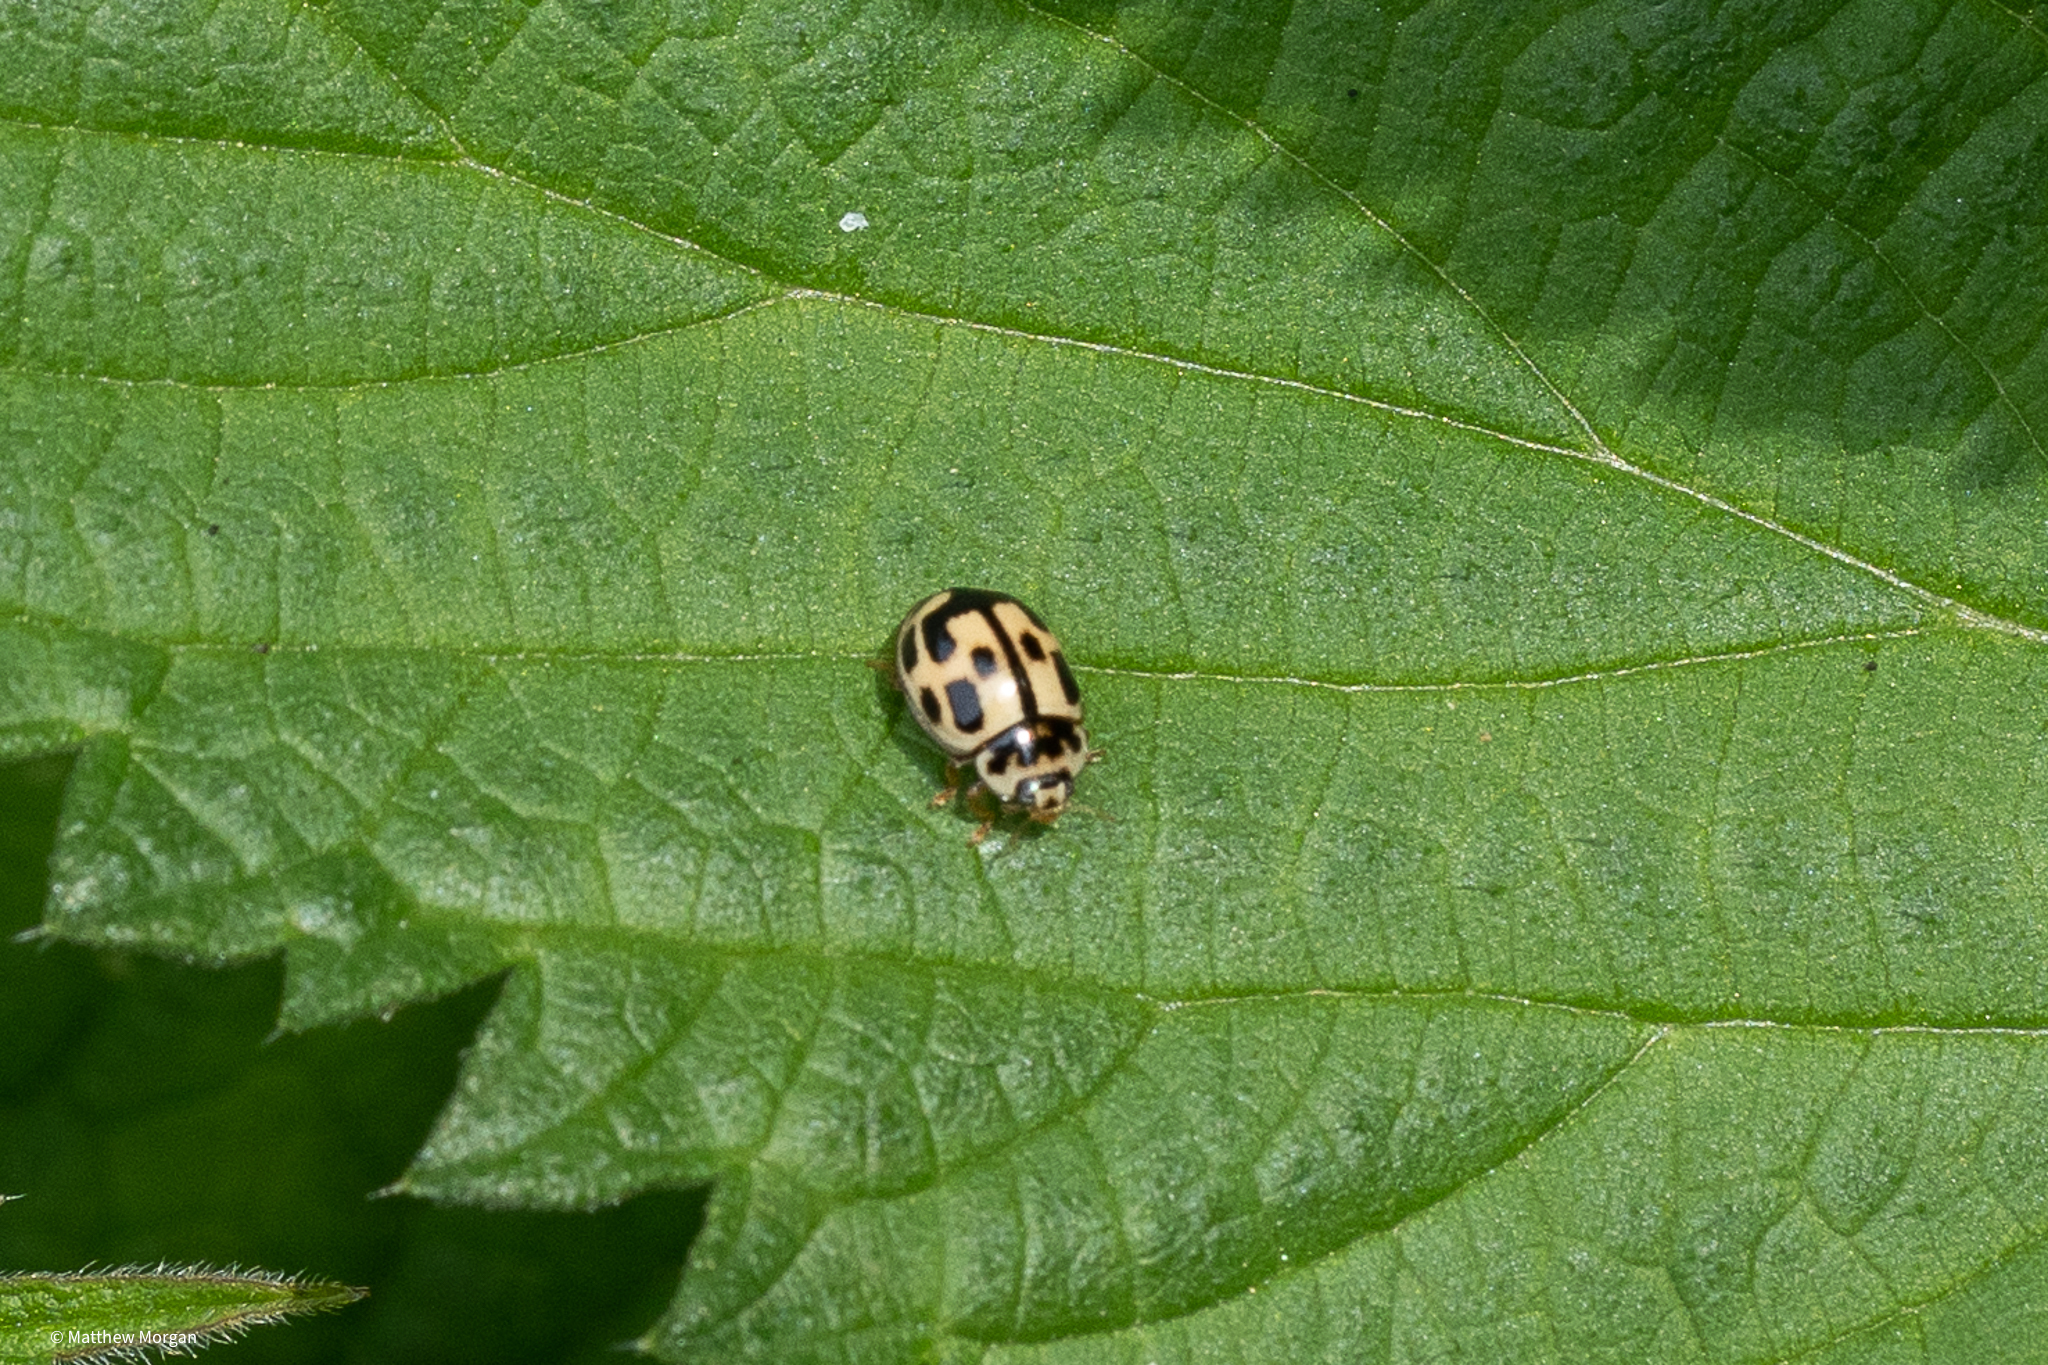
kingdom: Animalia
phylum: Arthropoda
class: Insecta
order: Coleoptera
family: Coccinellidae
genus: Propylaea
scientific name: Propylaea quatuordecimpunctata
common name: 14-spotted ladybird beetle
